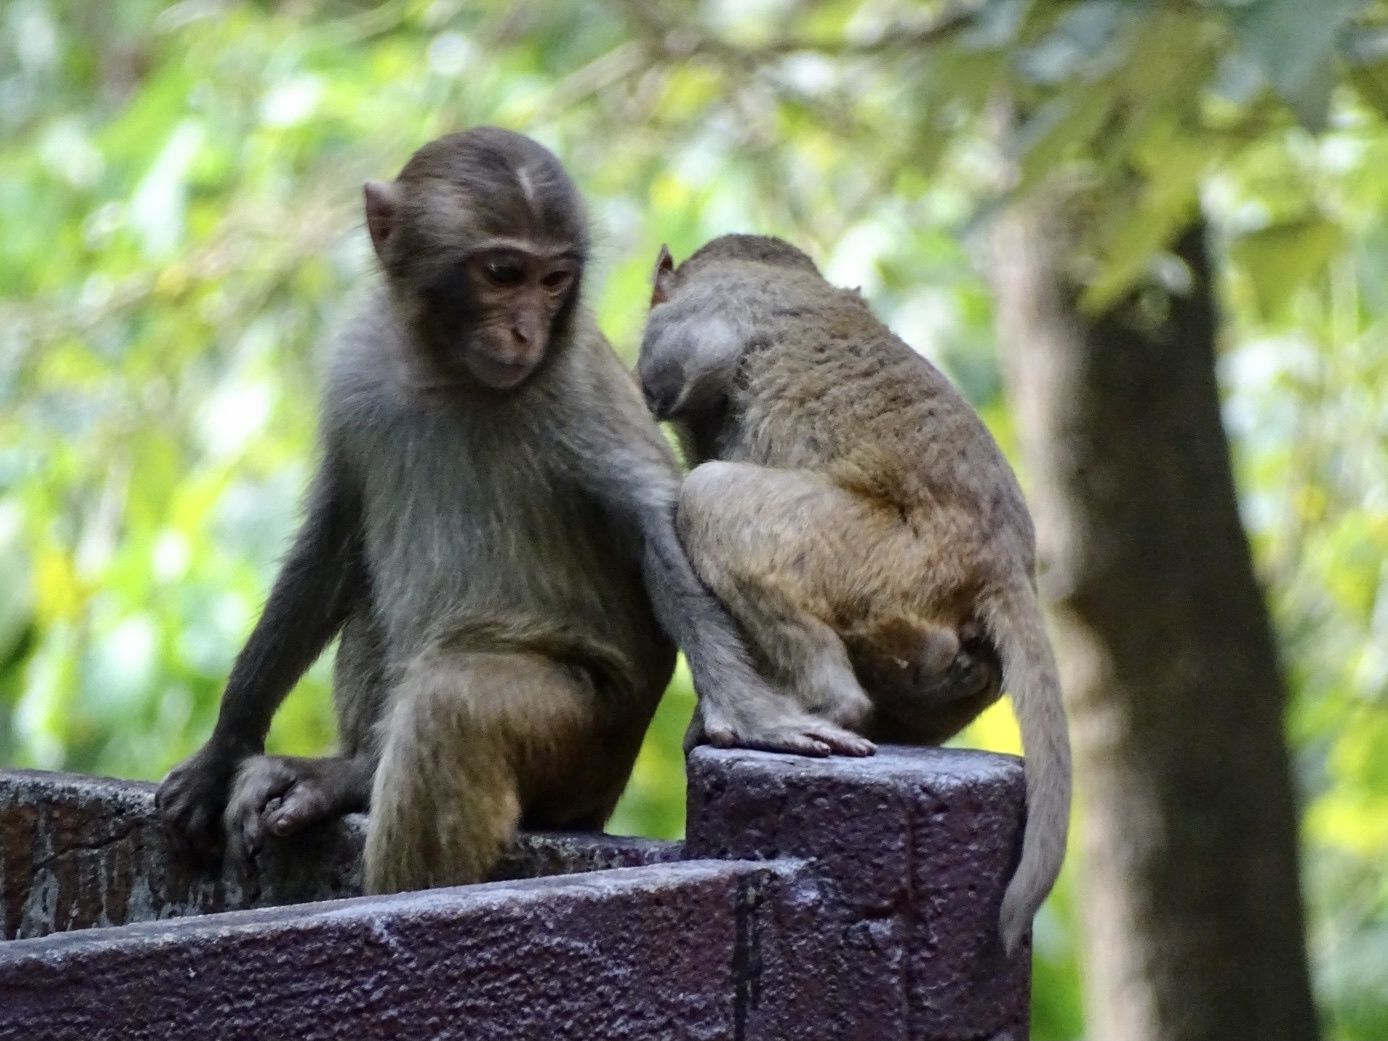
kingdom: Animalia
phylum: Chordata
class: Mammalia
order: Primates
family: Cercopithecidae
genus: Macaca
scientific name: Macaca mulatta
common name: Rhesus monkey
